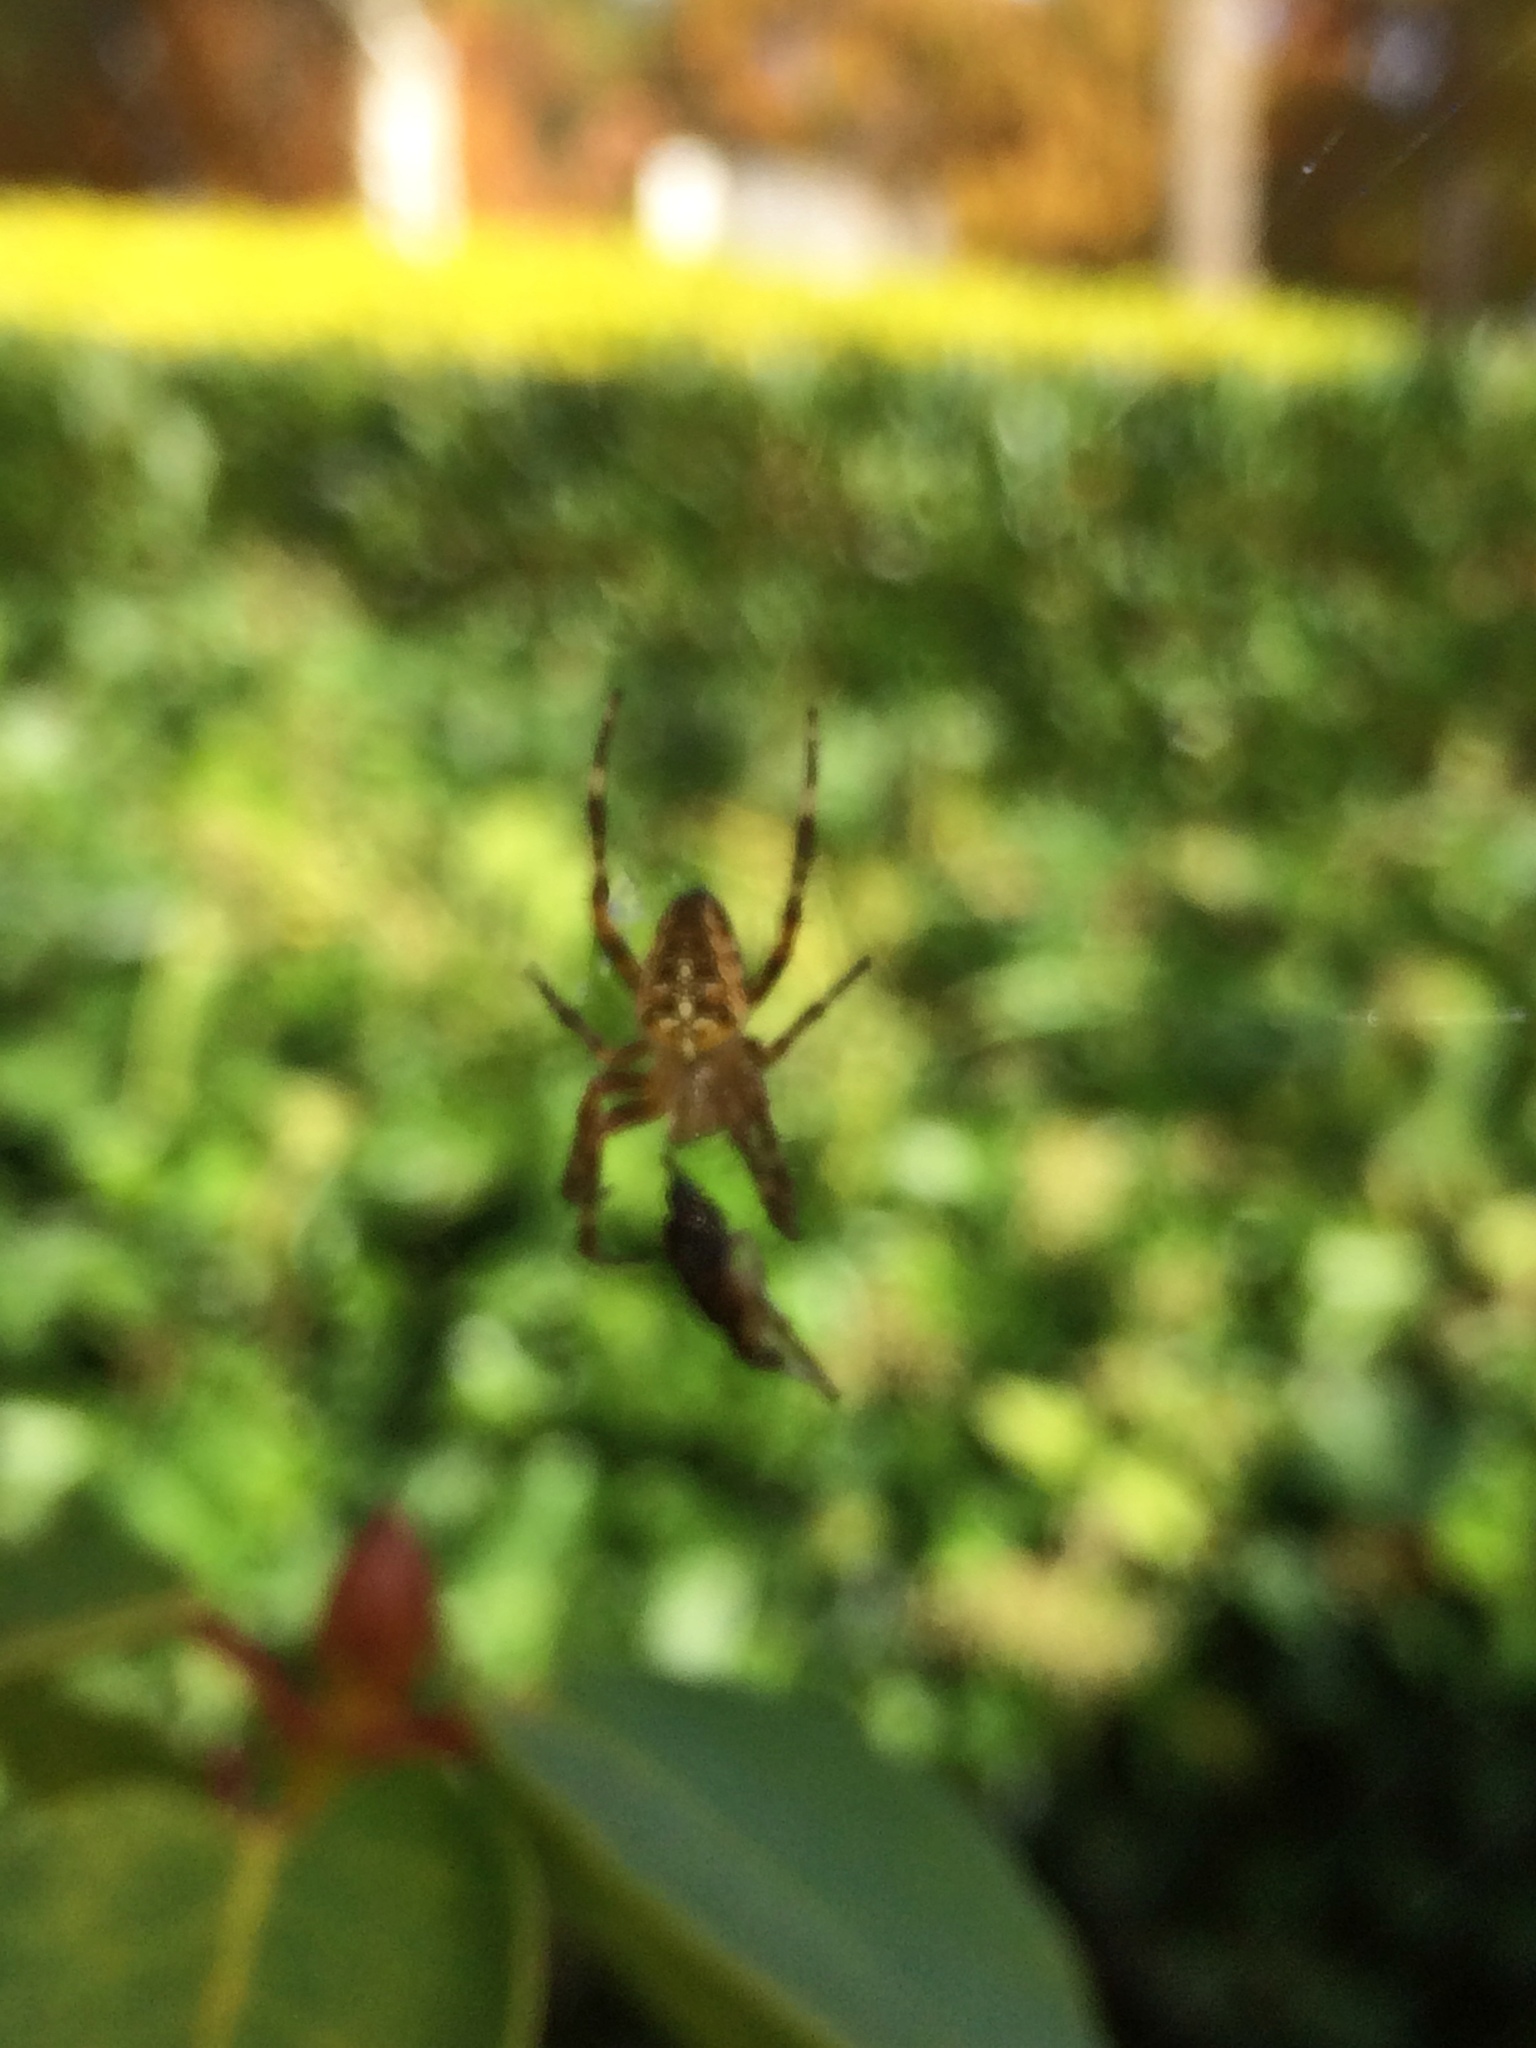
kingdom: Animalia
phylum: Arthropoda
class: Arachnida
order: Araneae
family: Araneidae
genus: Araneus
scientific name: Araneus diadematus
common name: Cross orbweaver
